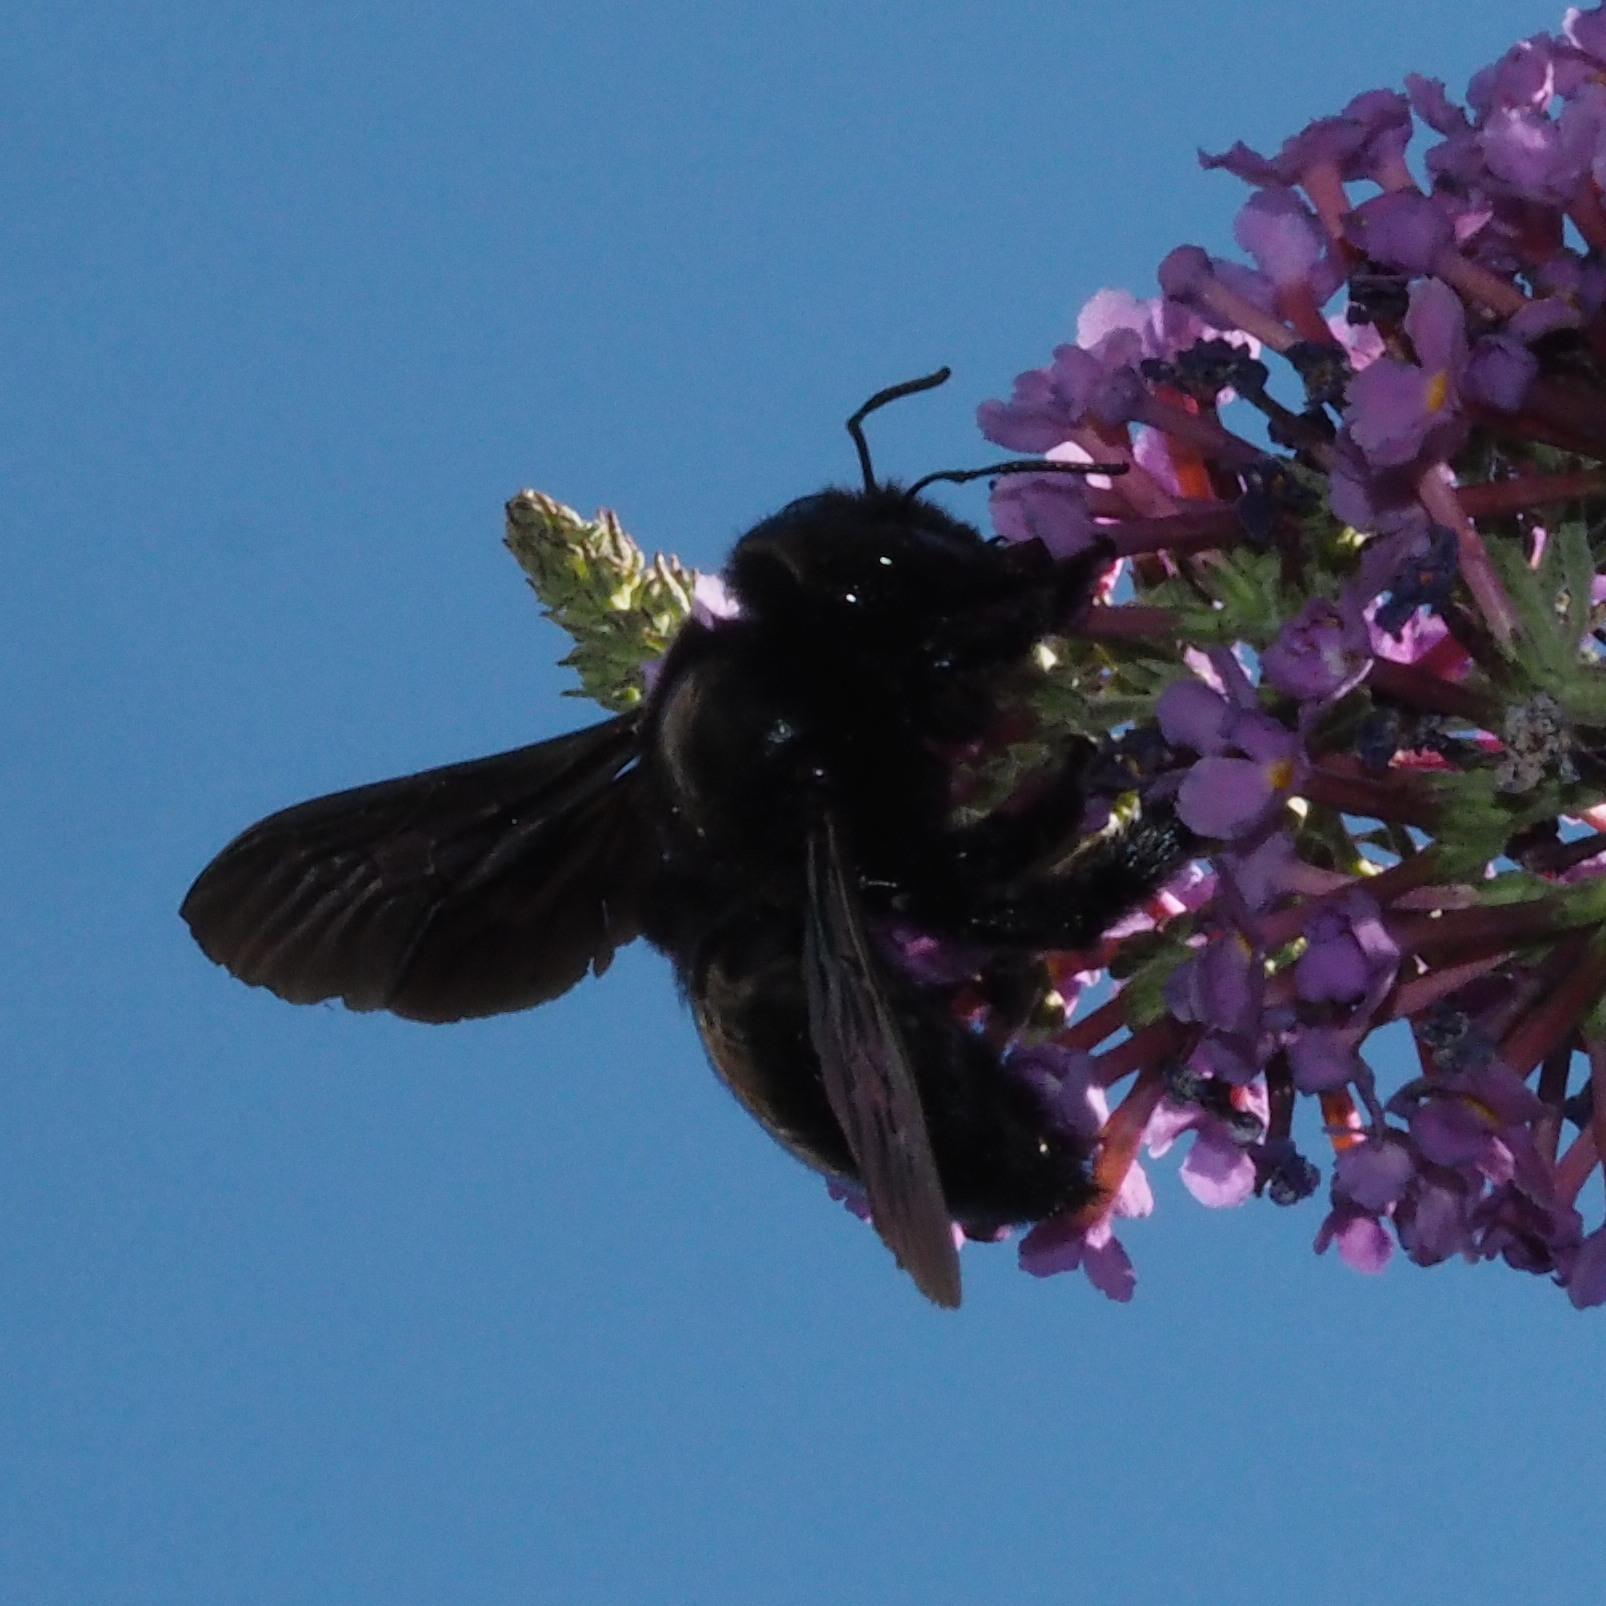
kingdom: Animalia
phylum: Arthropoda
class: Insecta
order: Hymenoptera
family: Apidae
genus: Xylocopa
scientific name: Xylocopa
